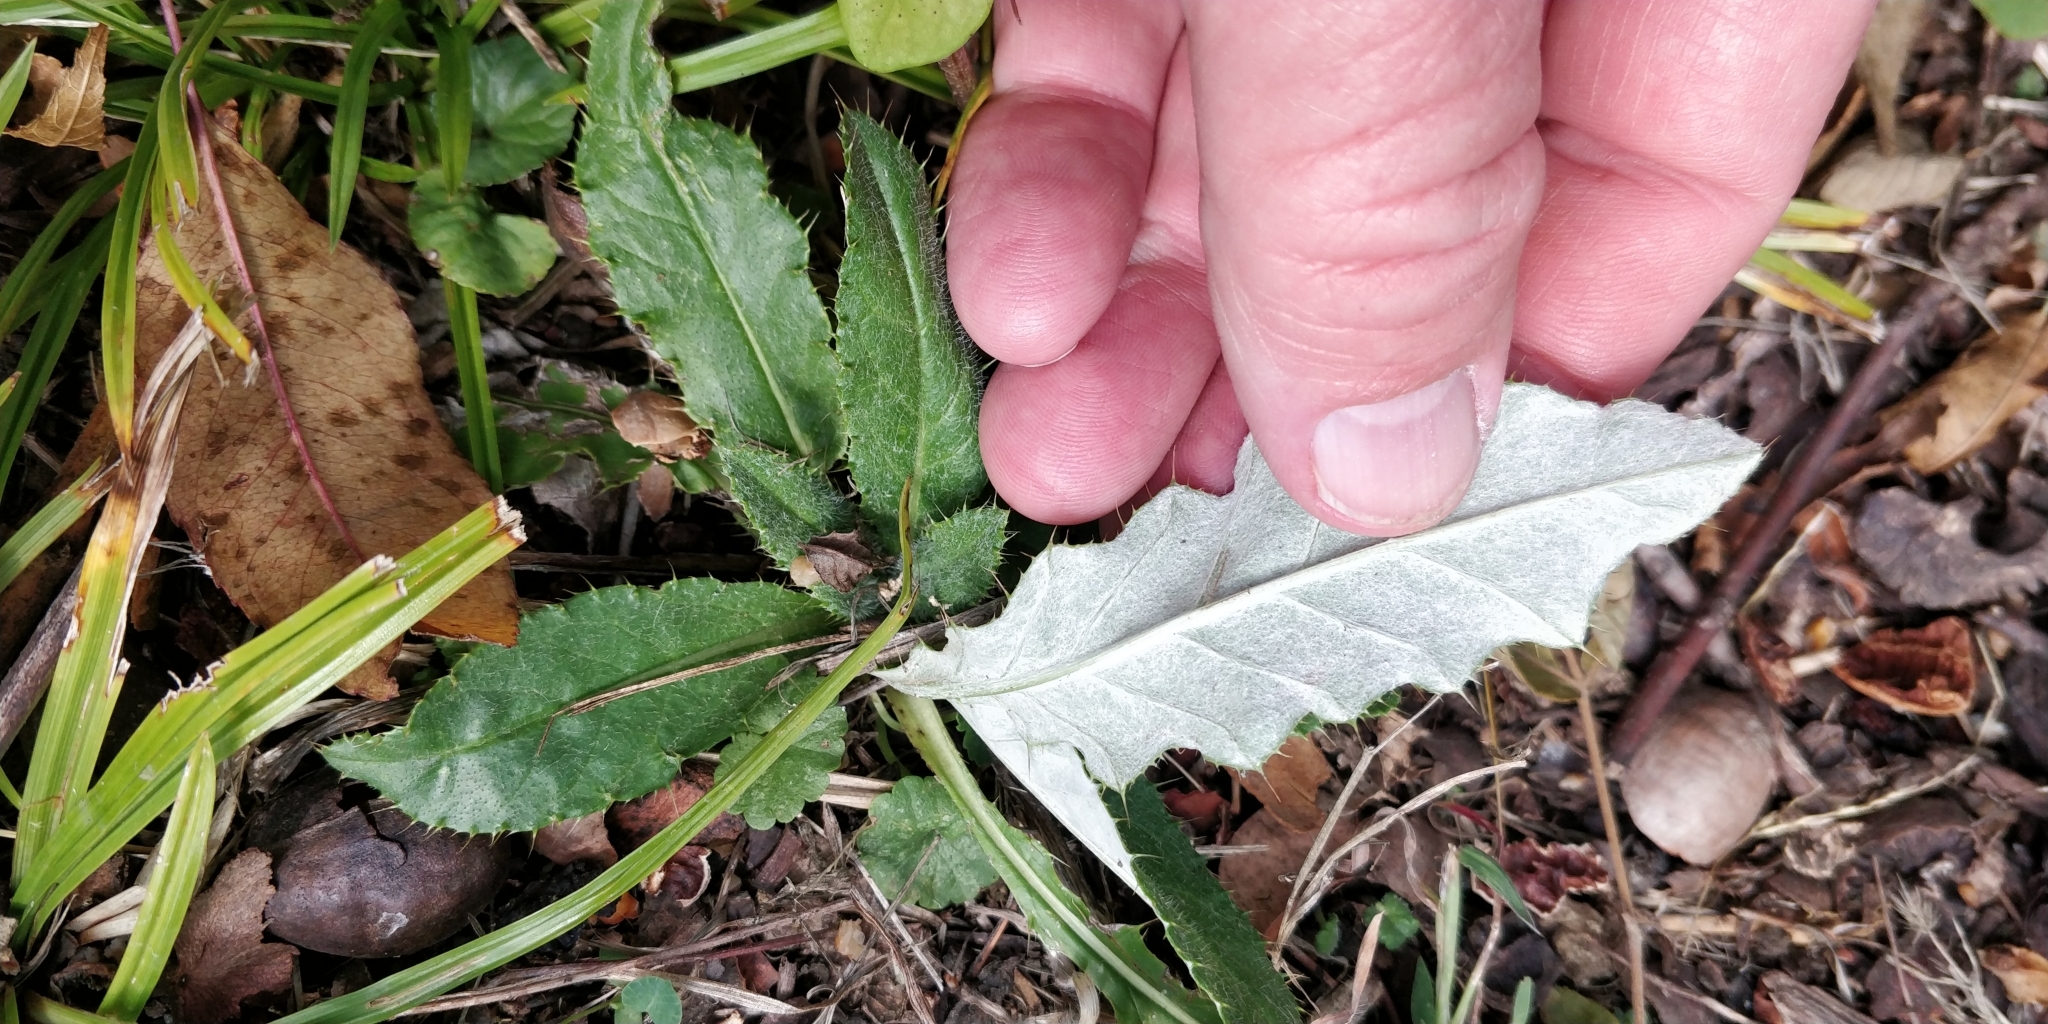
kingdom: Plantae
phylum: Tracheophyta
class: Magnoliopsida
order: Asterales
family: Asteraceae
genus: Cirsium
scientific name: Cirsium altissimum
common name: Roadside thistle
